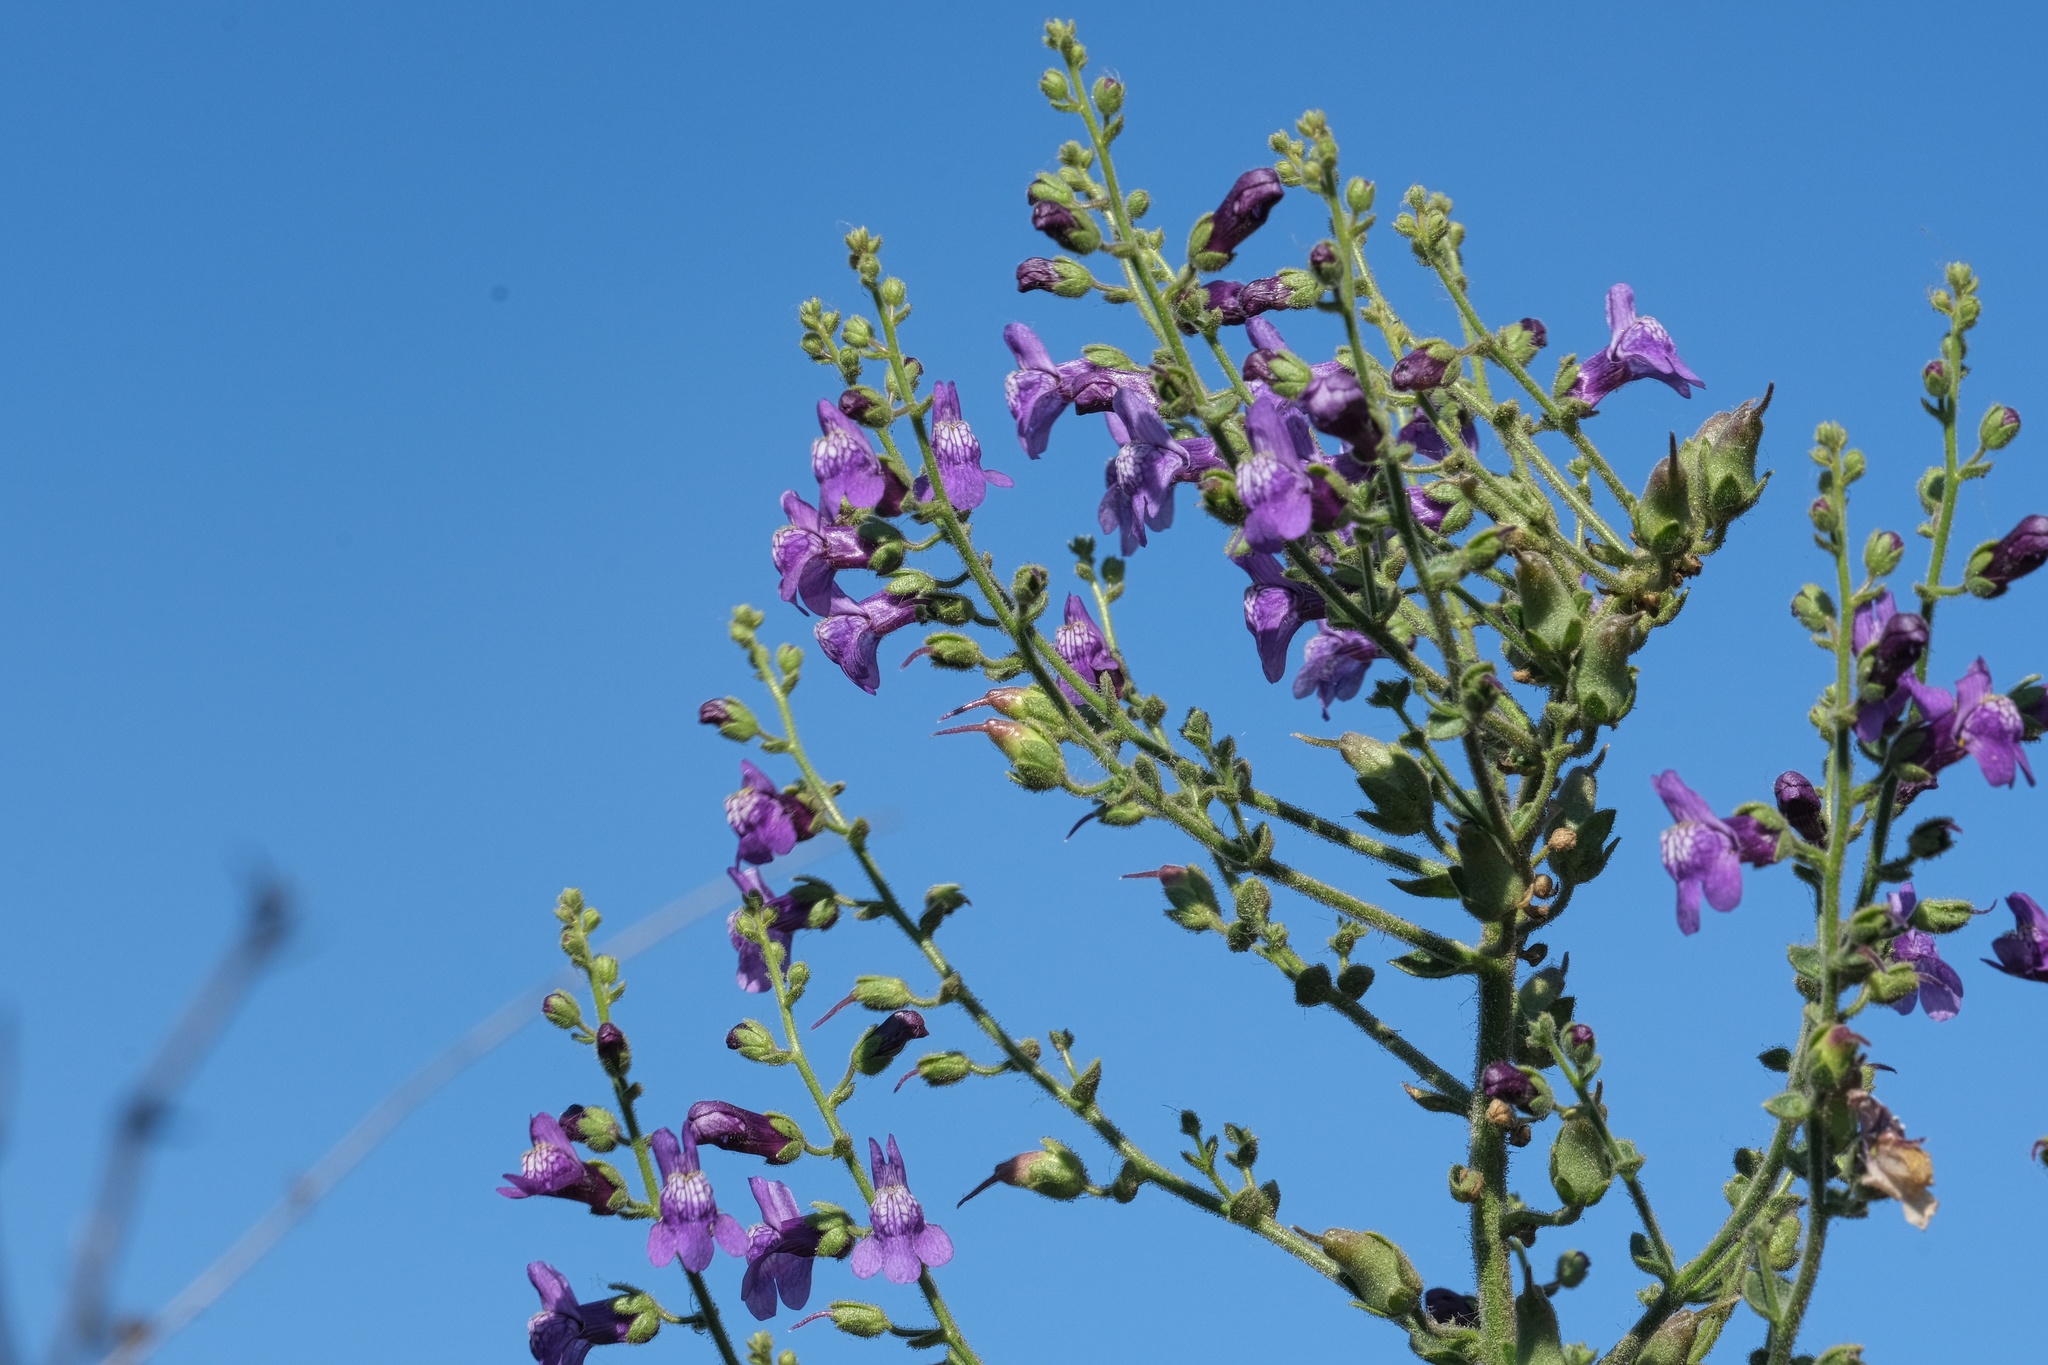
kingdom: Plantae
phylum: Tracheophyta
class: Magnoliopsida
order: Lamiales
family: Plantaginaceae
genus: Sairocarpus
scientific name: Sairocarpus nuttallianus
